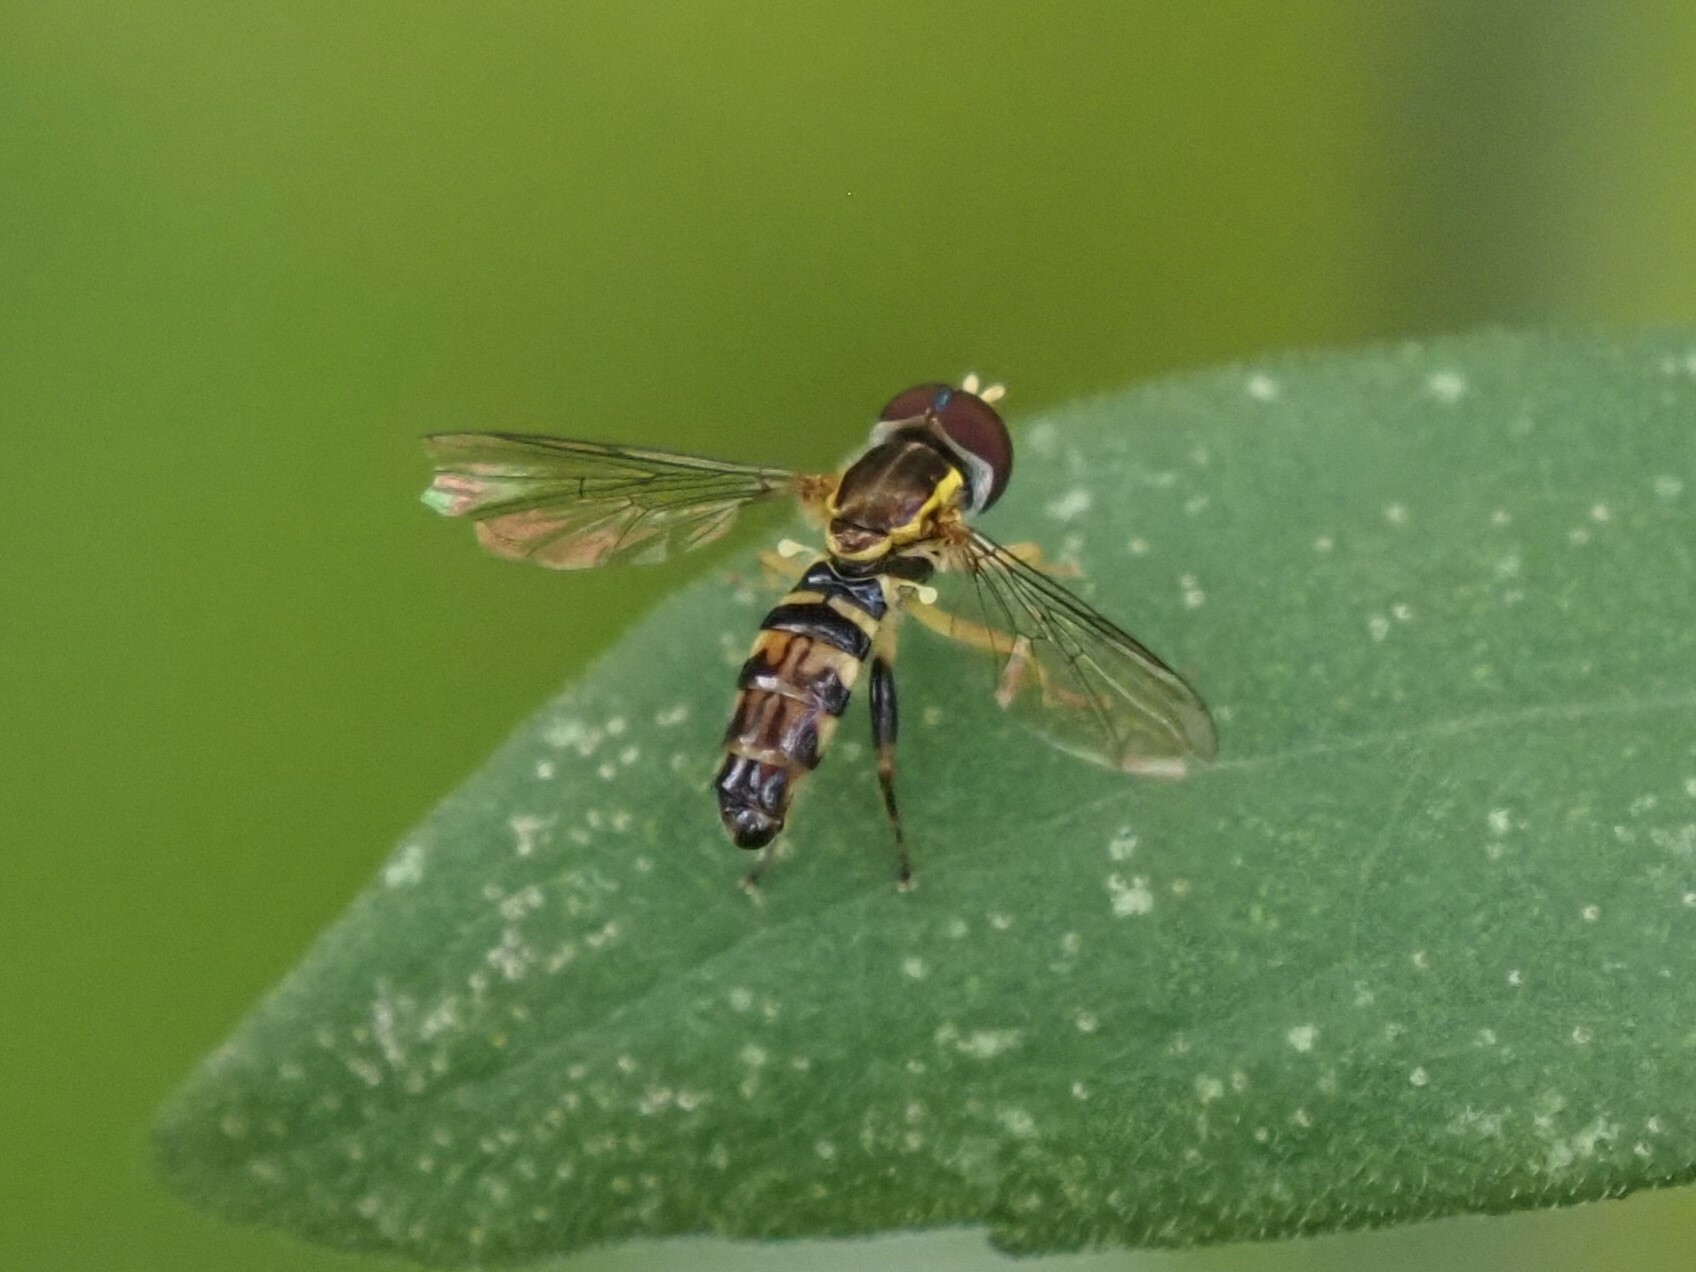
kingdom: Animalia
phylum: Arthropoda
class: Insecta
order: Diptera
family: Syrphidae
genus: Toxomerus
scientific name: Toxomerus geminatus
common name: Eastern calligrapher
